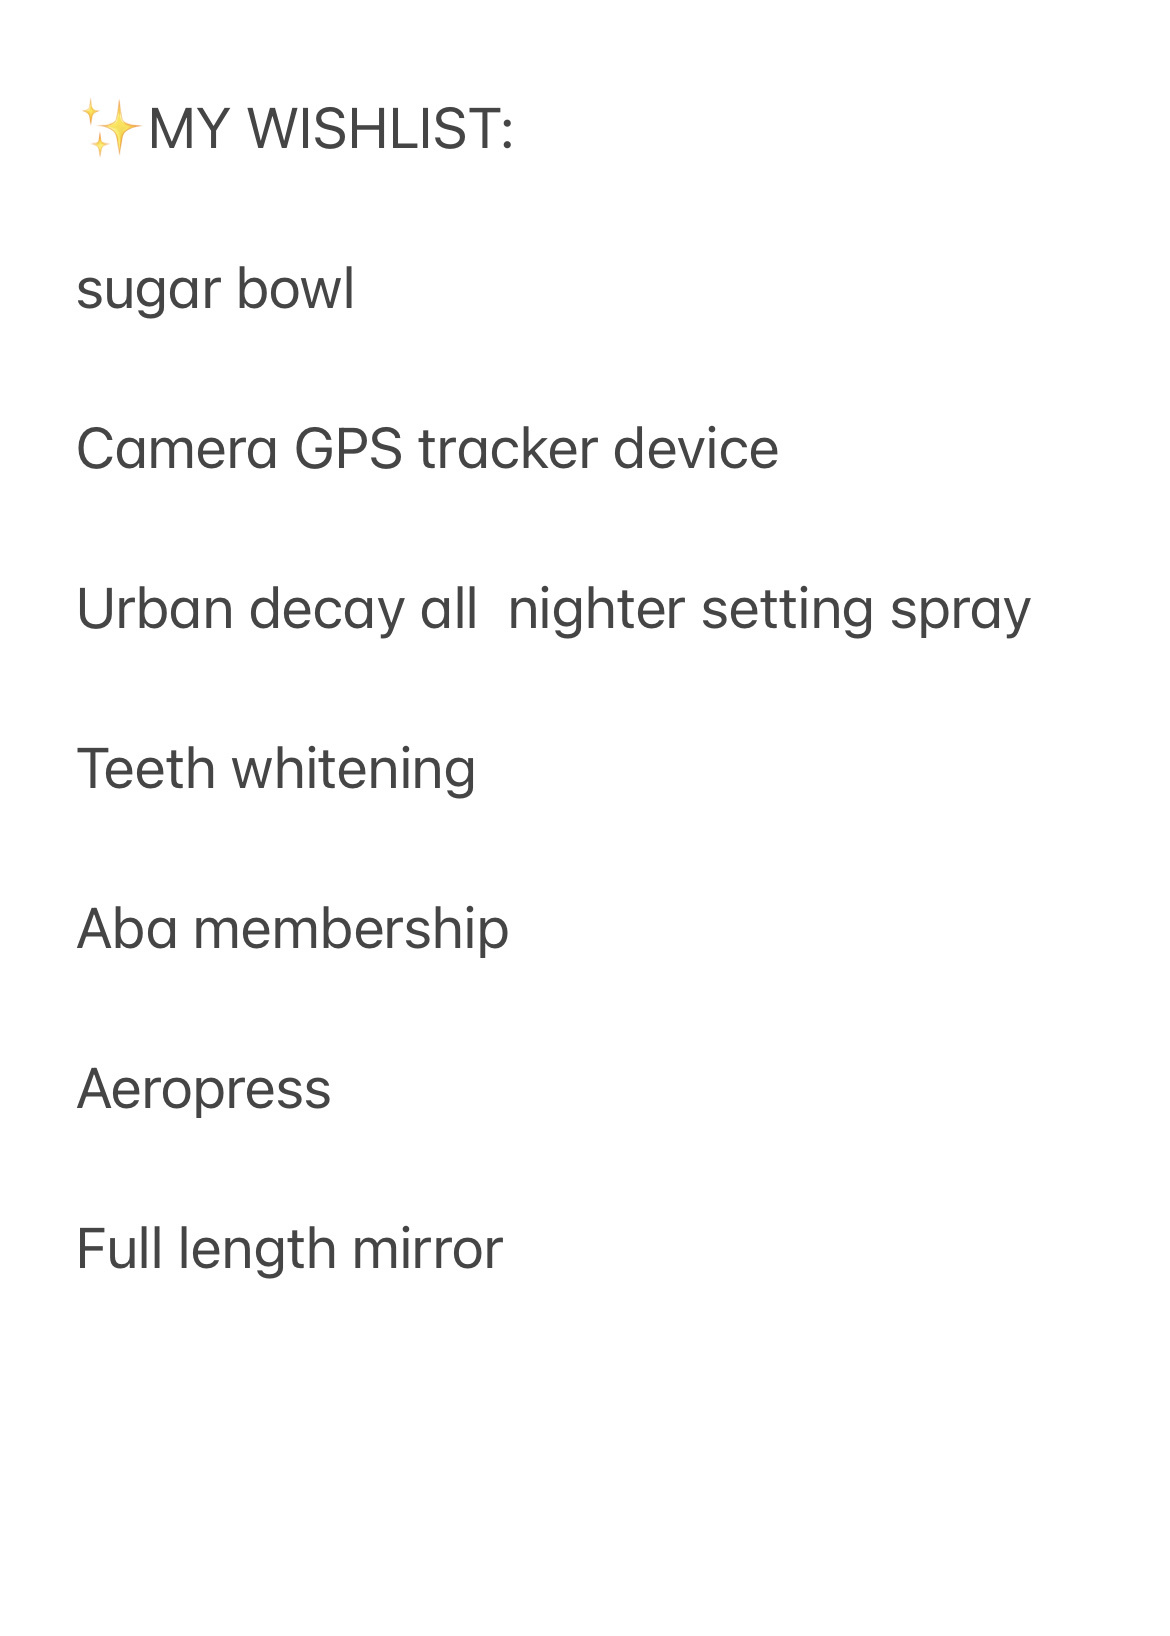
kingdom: Plantae
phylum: Marchantiophyta
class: Jungermanniopsida
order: Porellales
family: Porellaceae
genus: Porella
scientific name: Porella navicularis
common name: Tree ruffle liverwort
